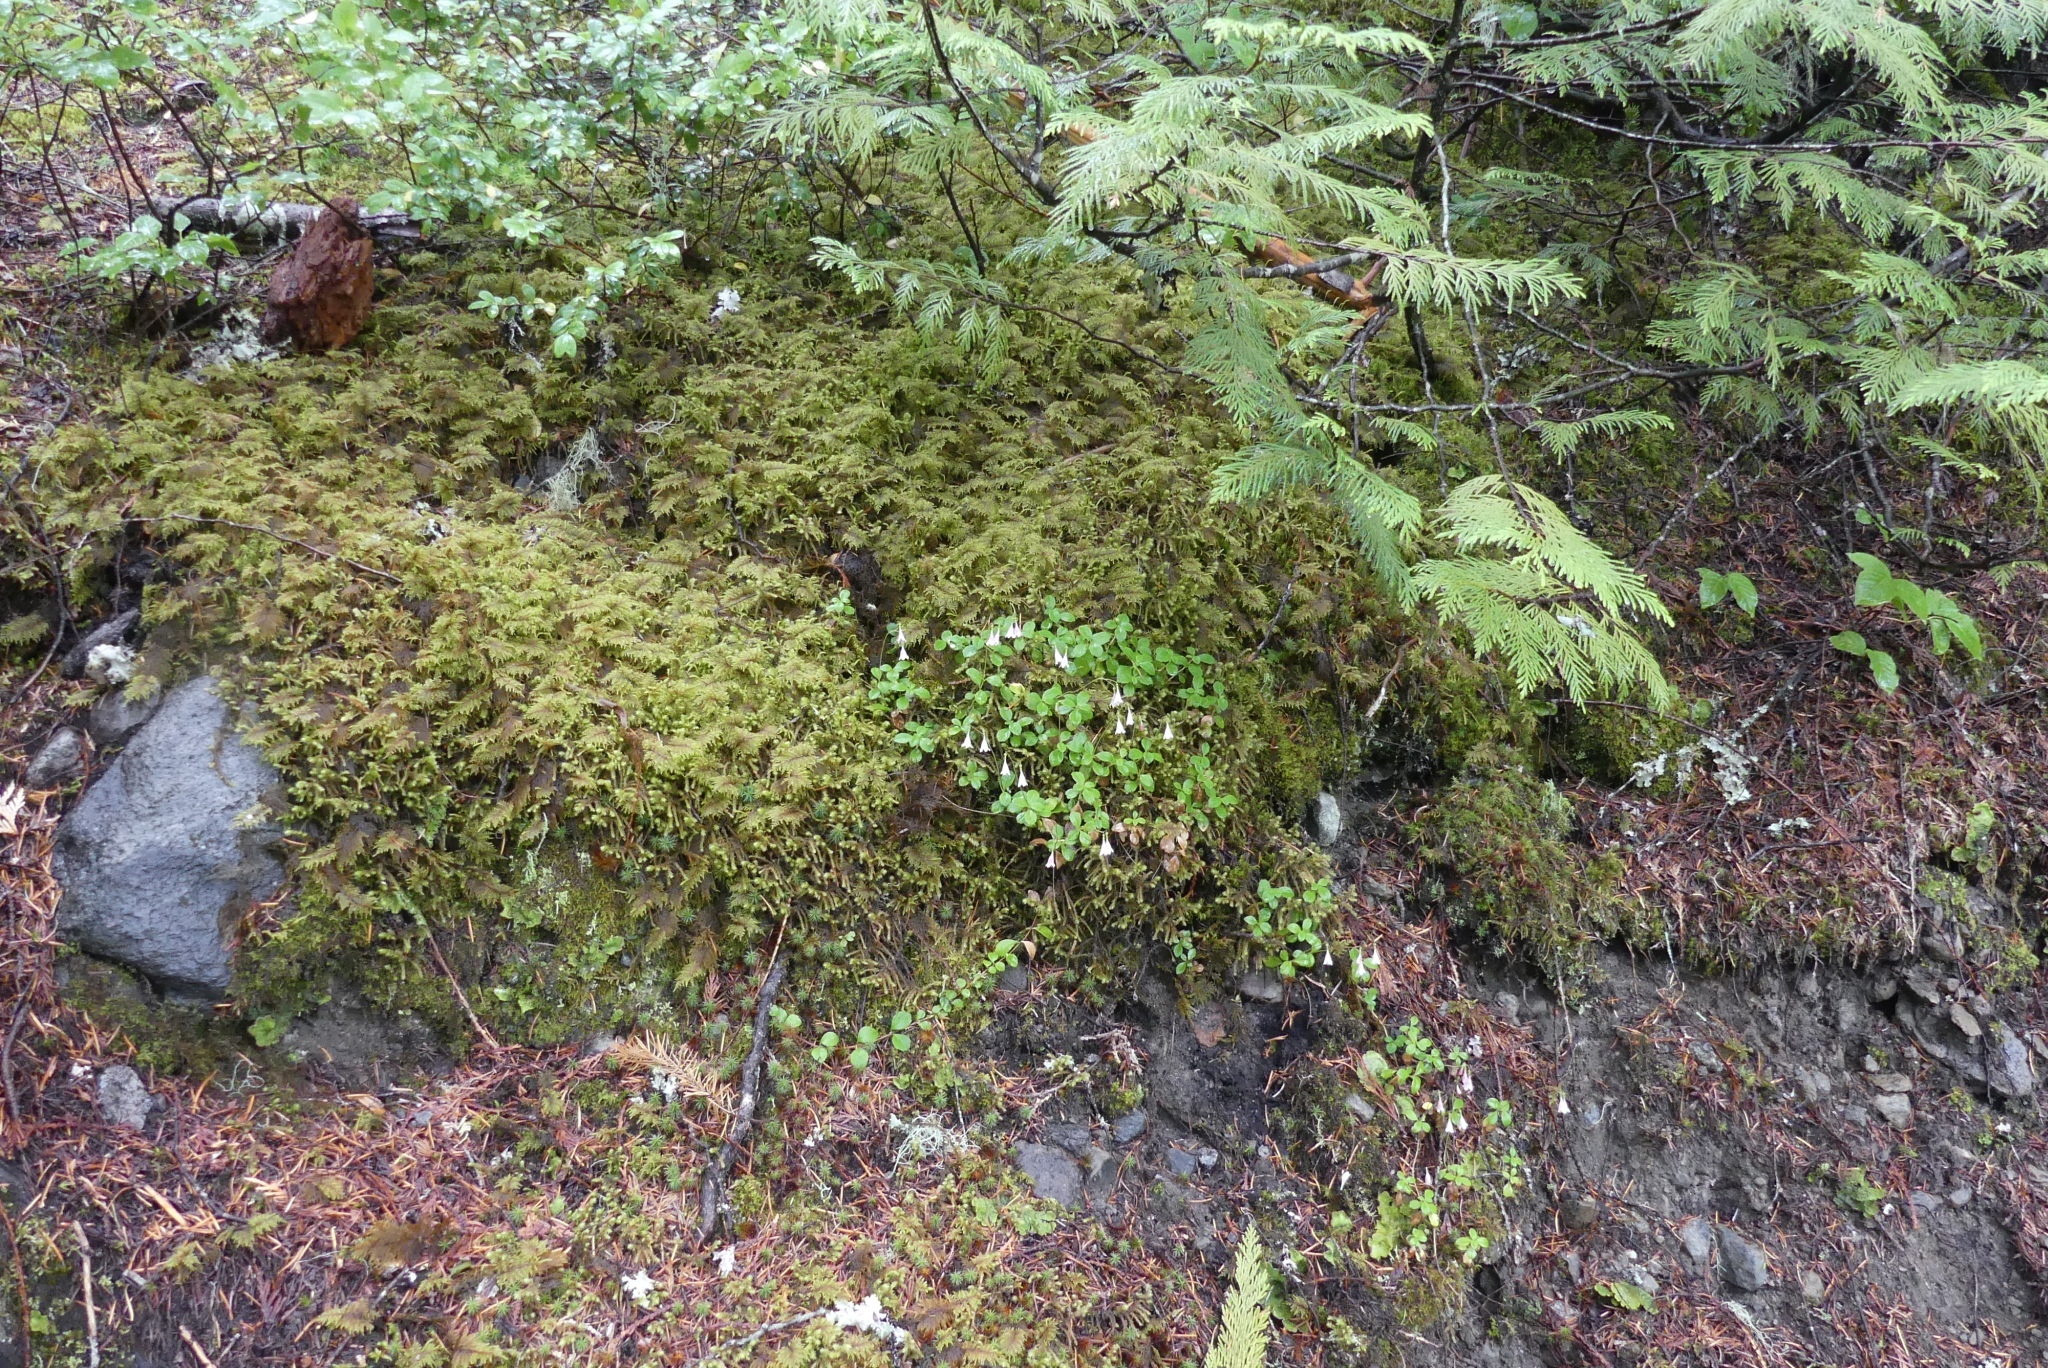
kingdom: Plantae
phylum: Tracheophyta
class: Magnoliopsida
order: Dipsacales
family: Caprifoliaceae
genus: Linnaea
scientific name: Linnaea borealis
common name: Twinflower
